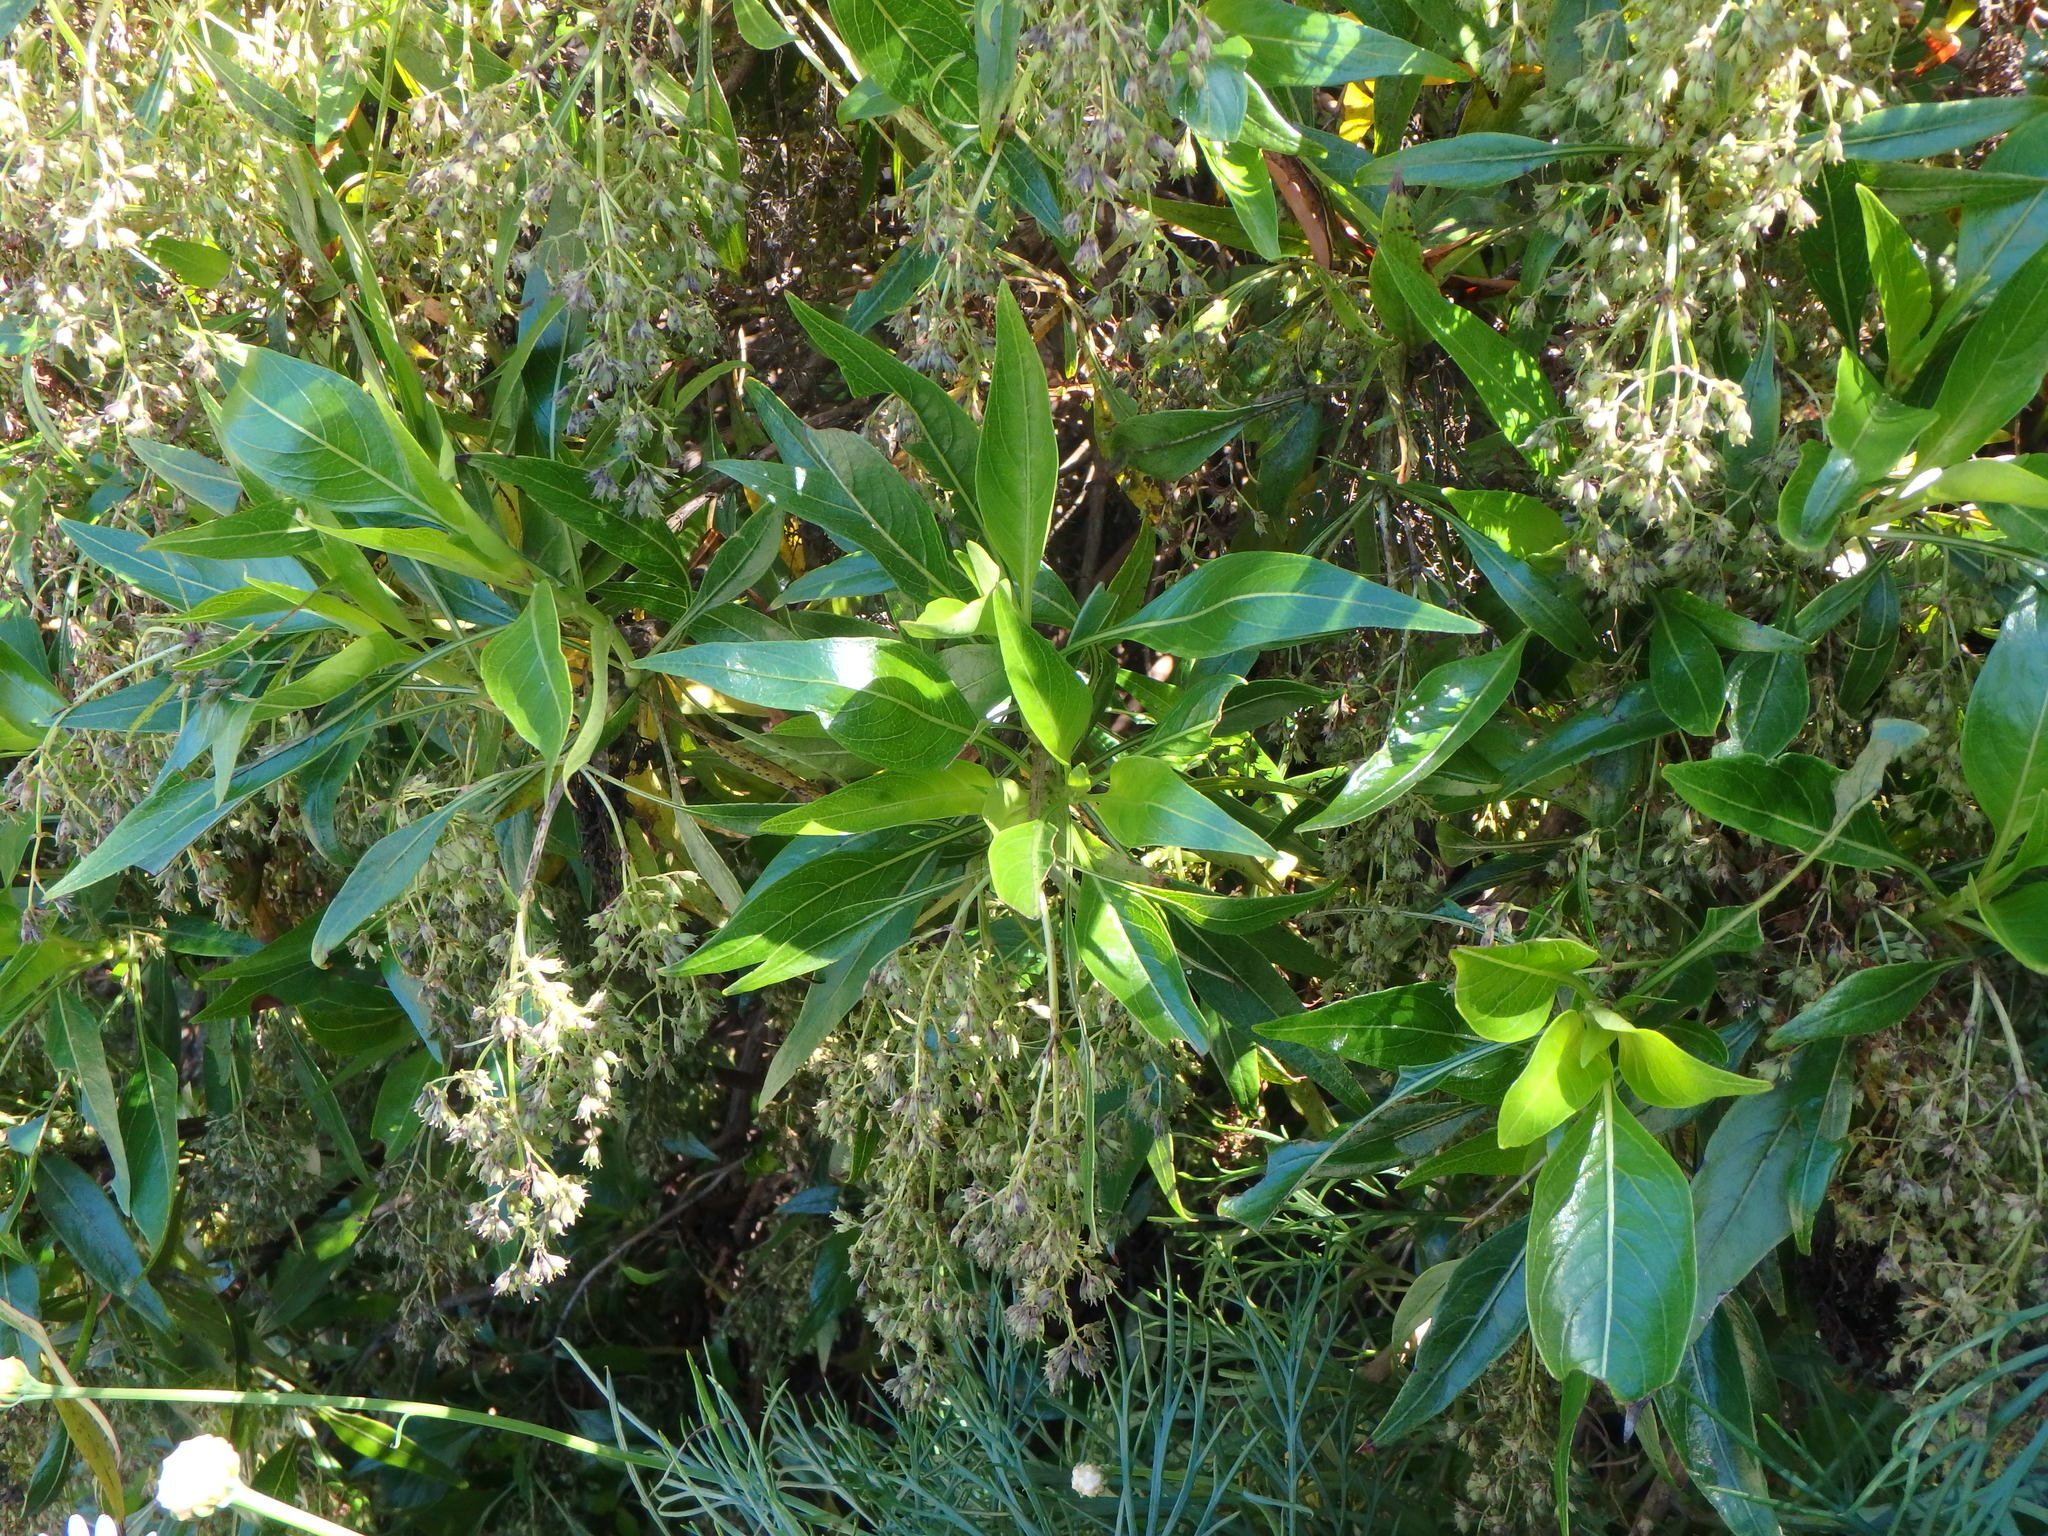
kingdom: Plantae
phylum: Tracheophyta
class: Magnoliopsida
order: Gentianales
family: Rubiaceae
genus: Phyllis
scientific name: Phyllis viscosa
